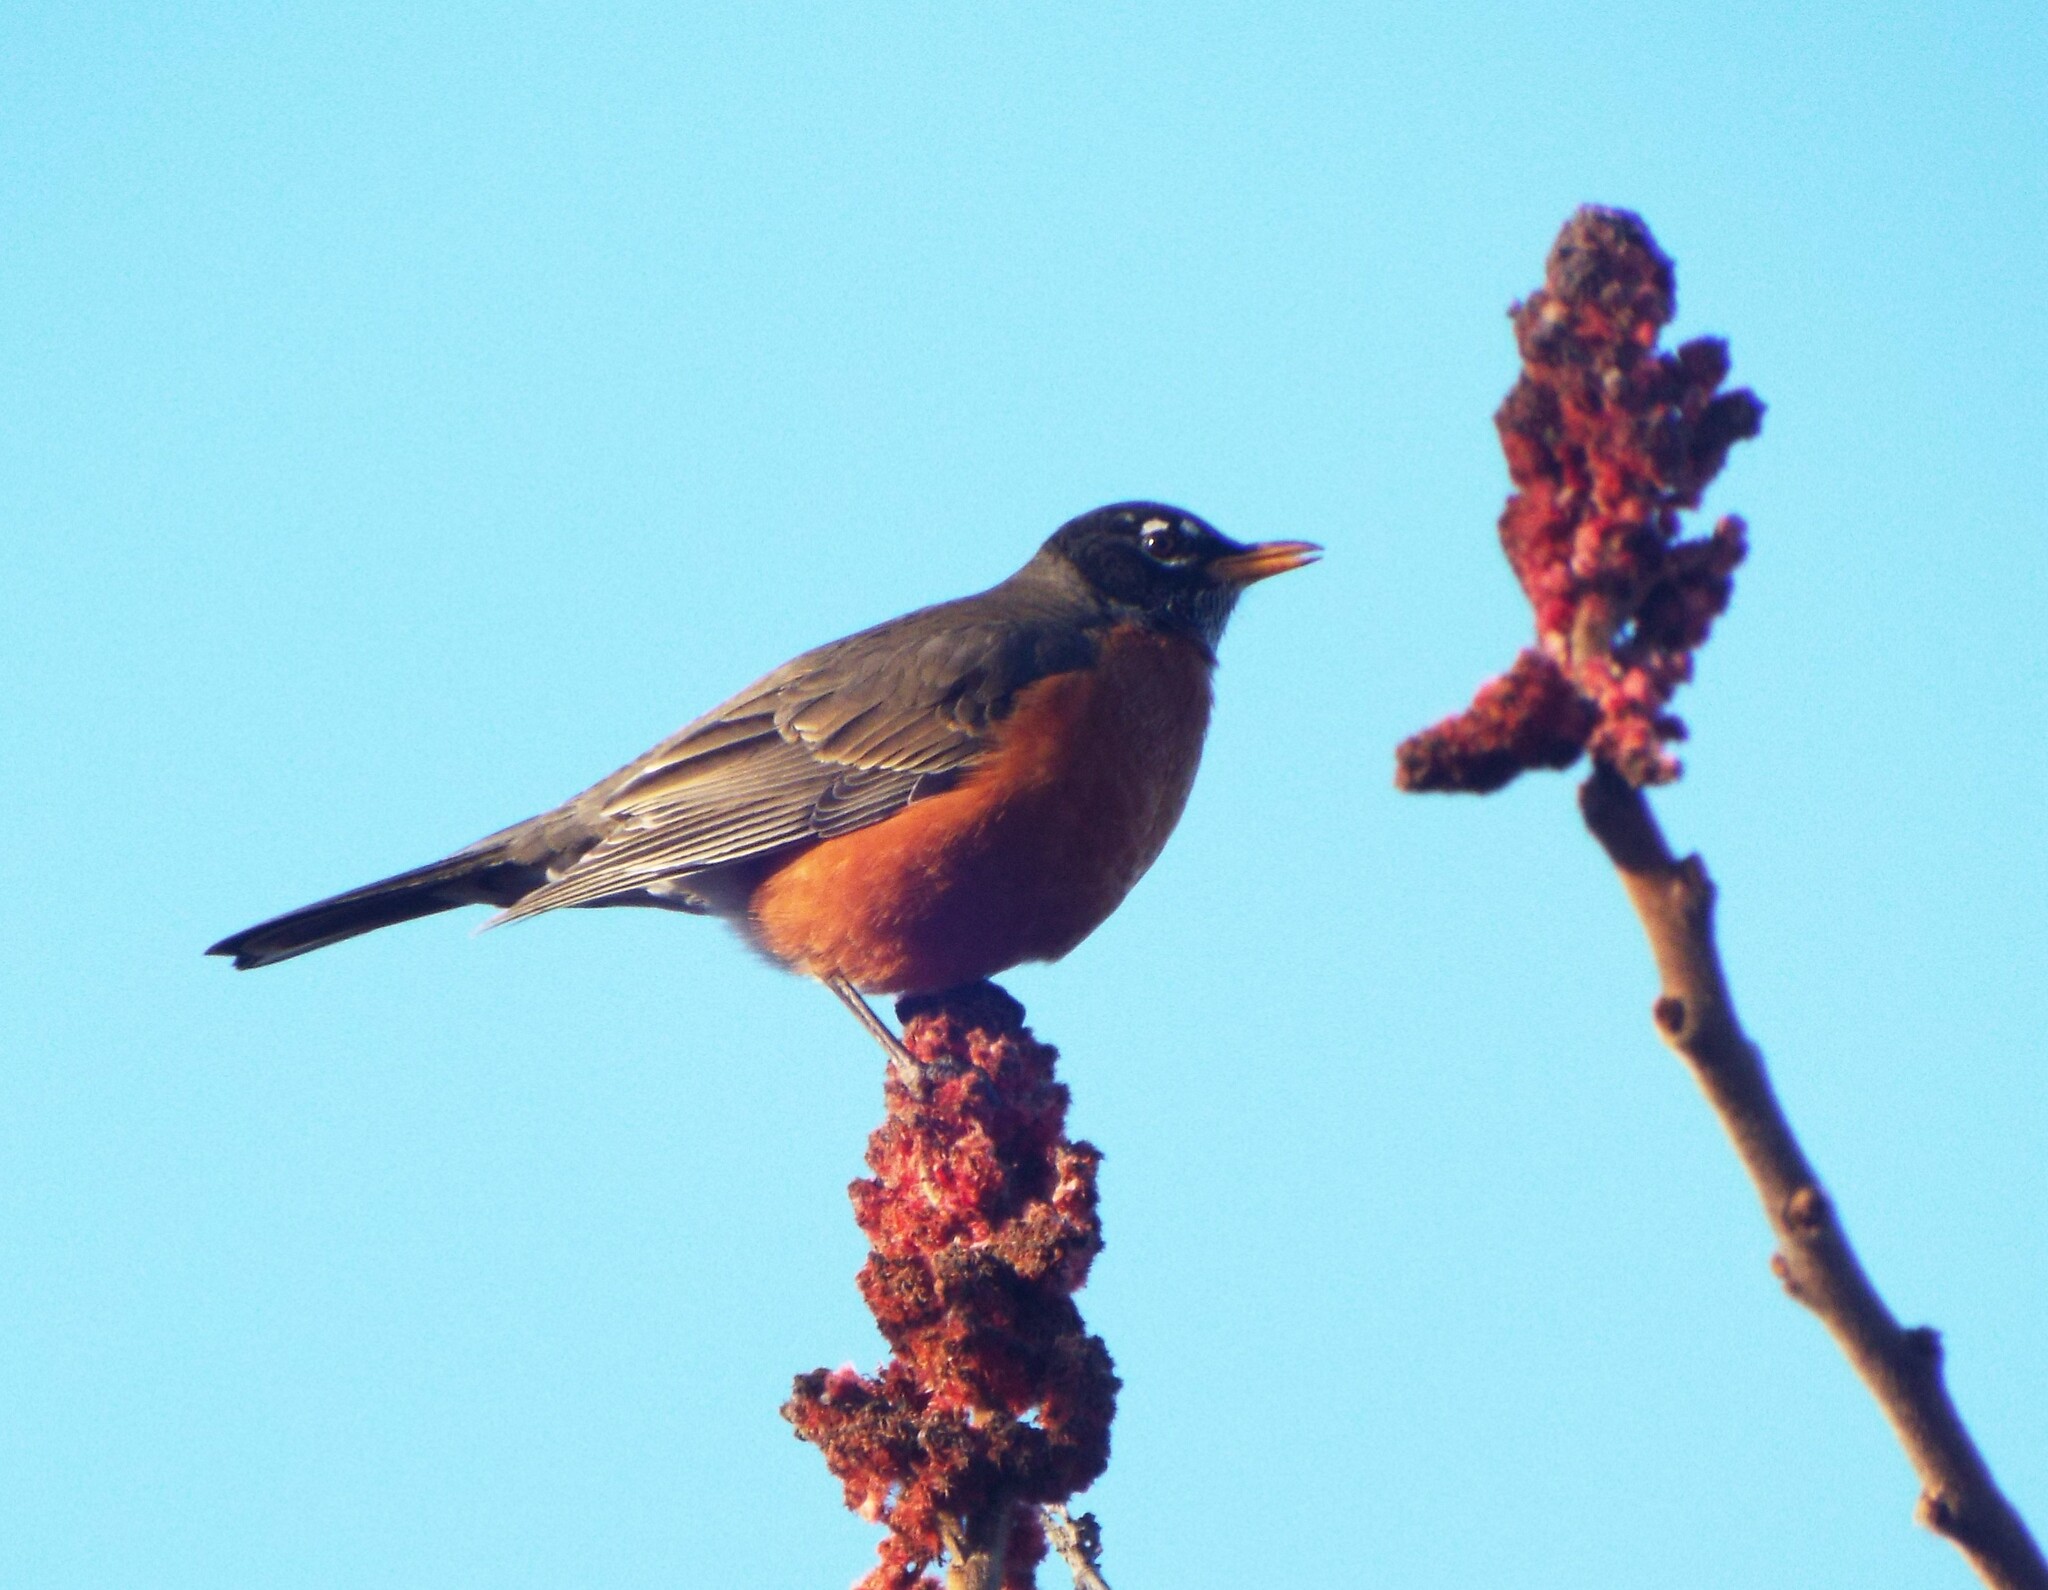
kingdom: Animalia
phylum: Chordata
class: Aves
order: Passeriformes
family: Turdidae
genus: Turdus
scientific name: Turdus migratorius
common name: American robin
